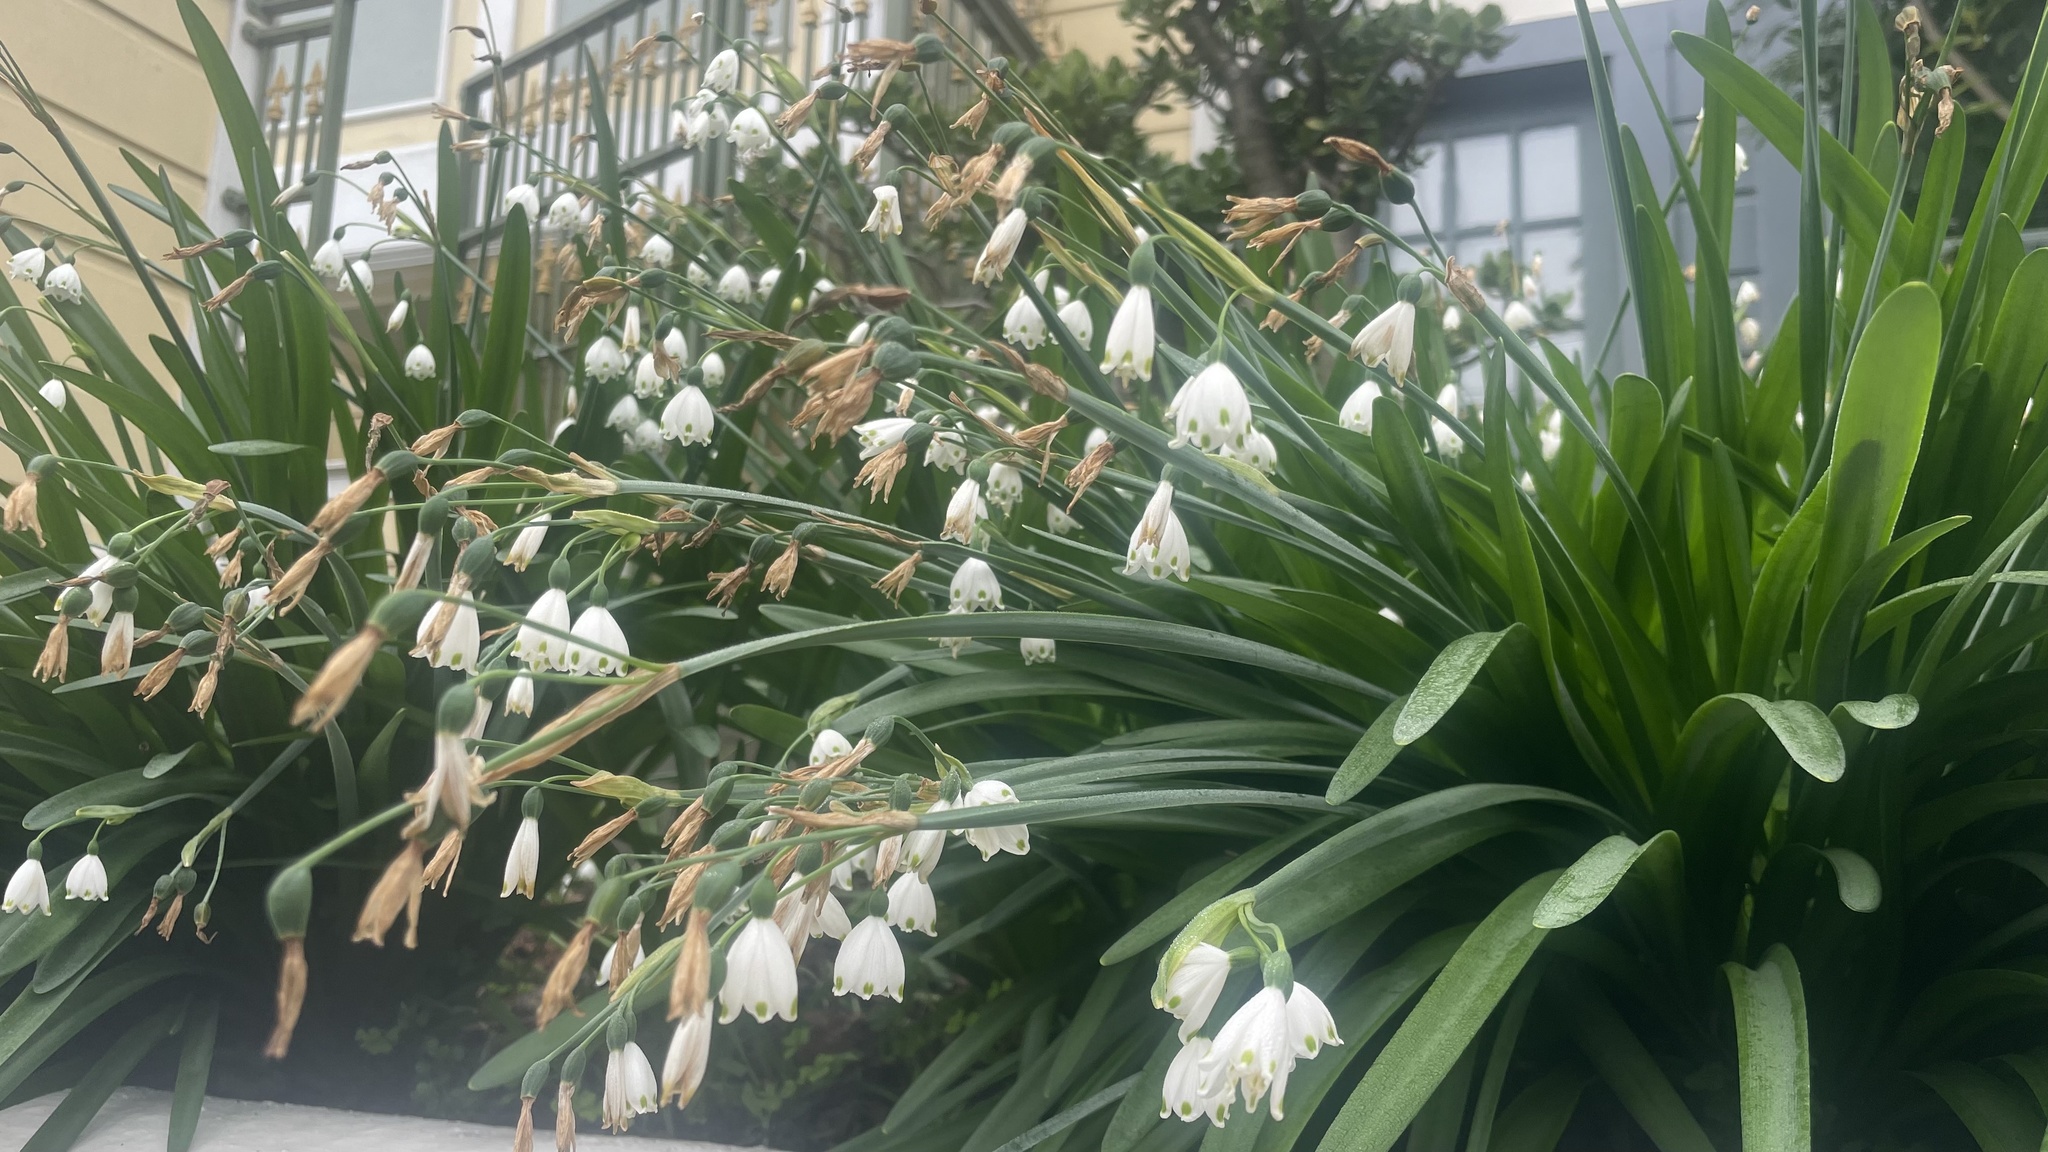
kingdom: Plantae
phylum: Tracheophyta
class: Liliopsida
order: Asparagales
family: Amaryllidaceae
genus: Leucojum
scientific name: Leucojum aestivum
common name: Summer snowflake
